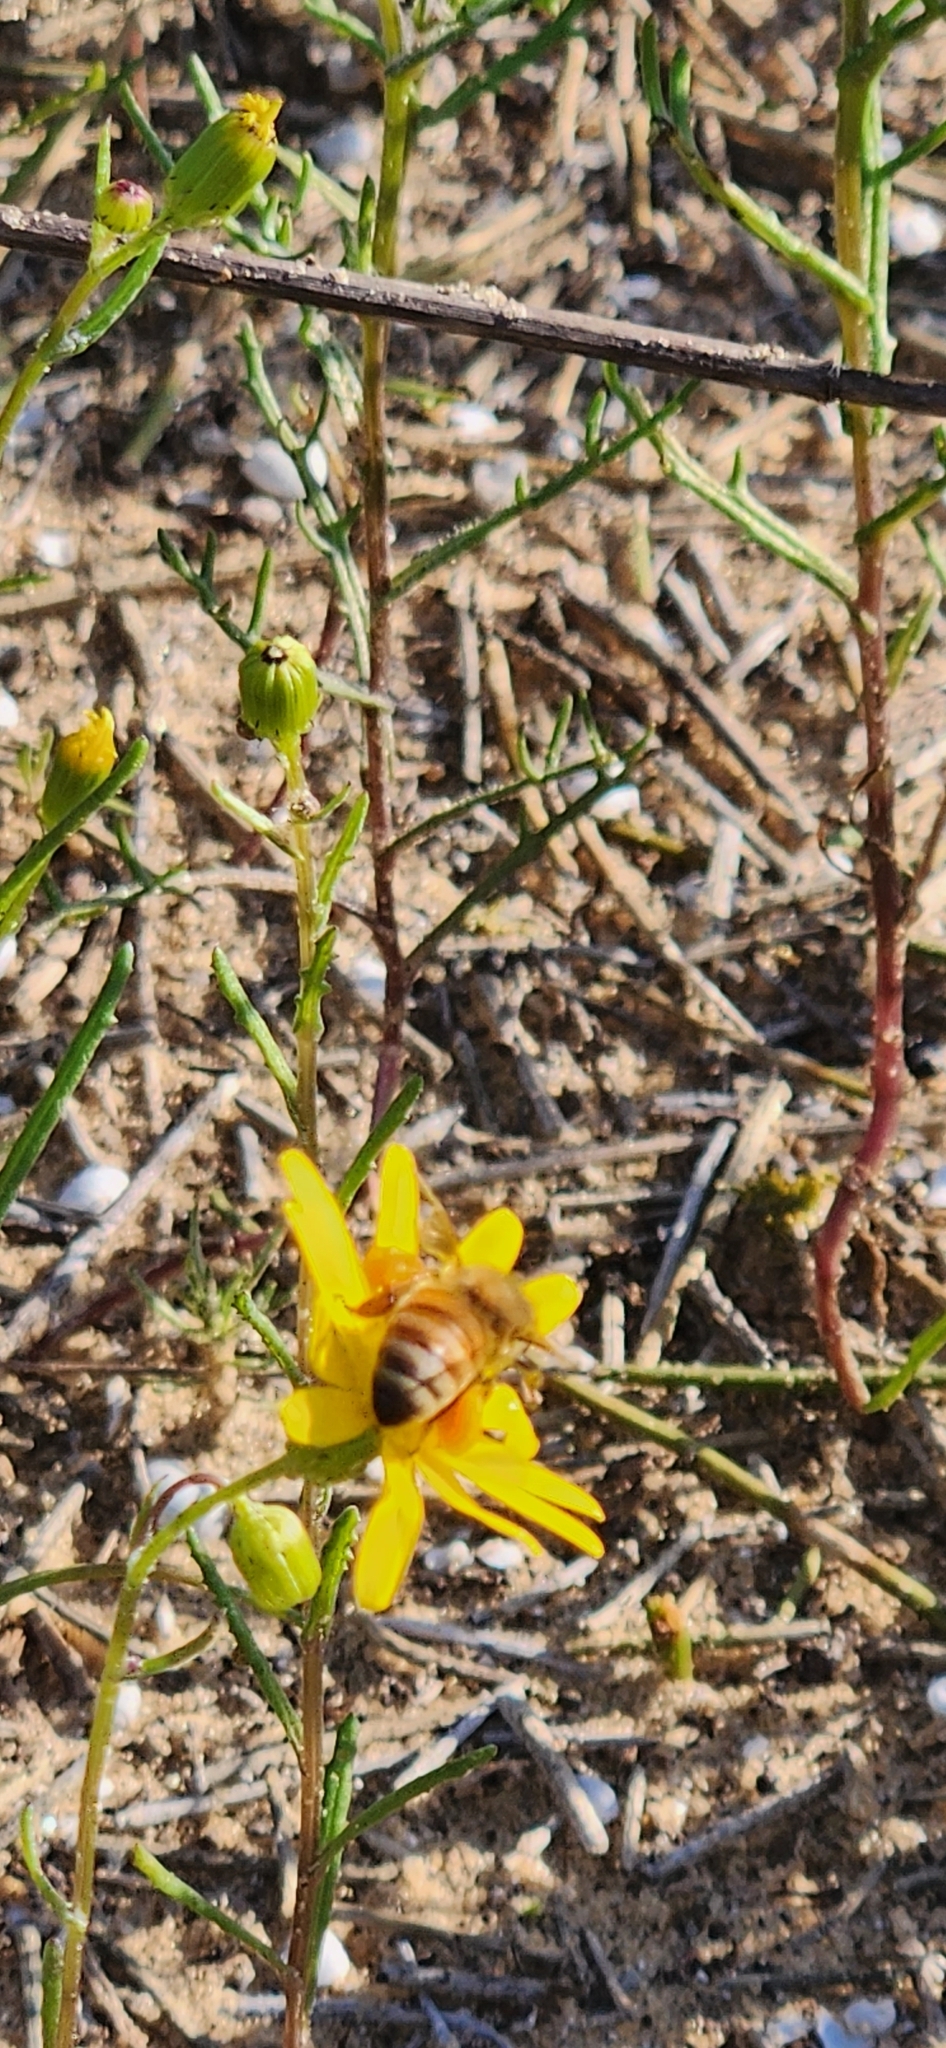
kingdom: Animalia
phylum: Arthropoda
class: Insecta
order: Hymenoptera
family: Apidae
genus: Apis
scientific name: Apis mellifera
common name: Honey bee
